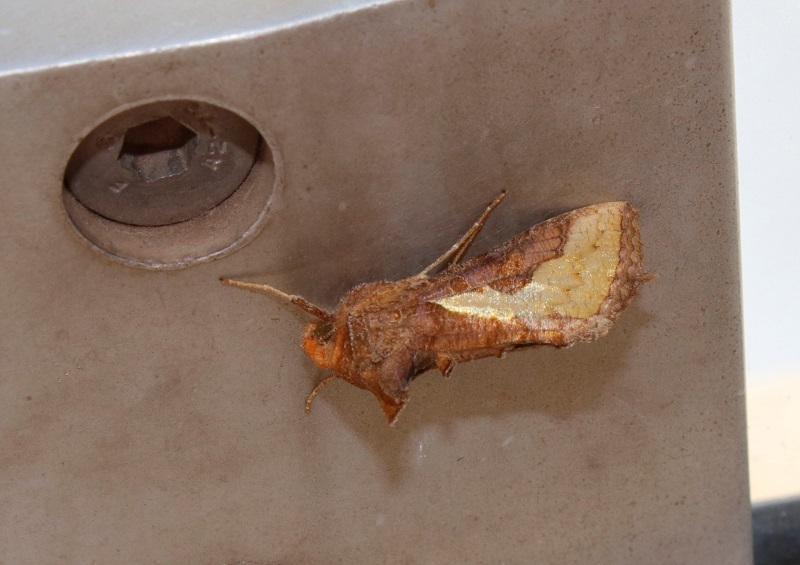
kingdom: Animalia
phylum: Arthropoda
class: Insecta
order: Lepidoptera
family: Noctuidae
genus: Thysanoplusia
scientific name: Thysanoplusia orichalcea
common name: Slender burnished brass, golden plusia
